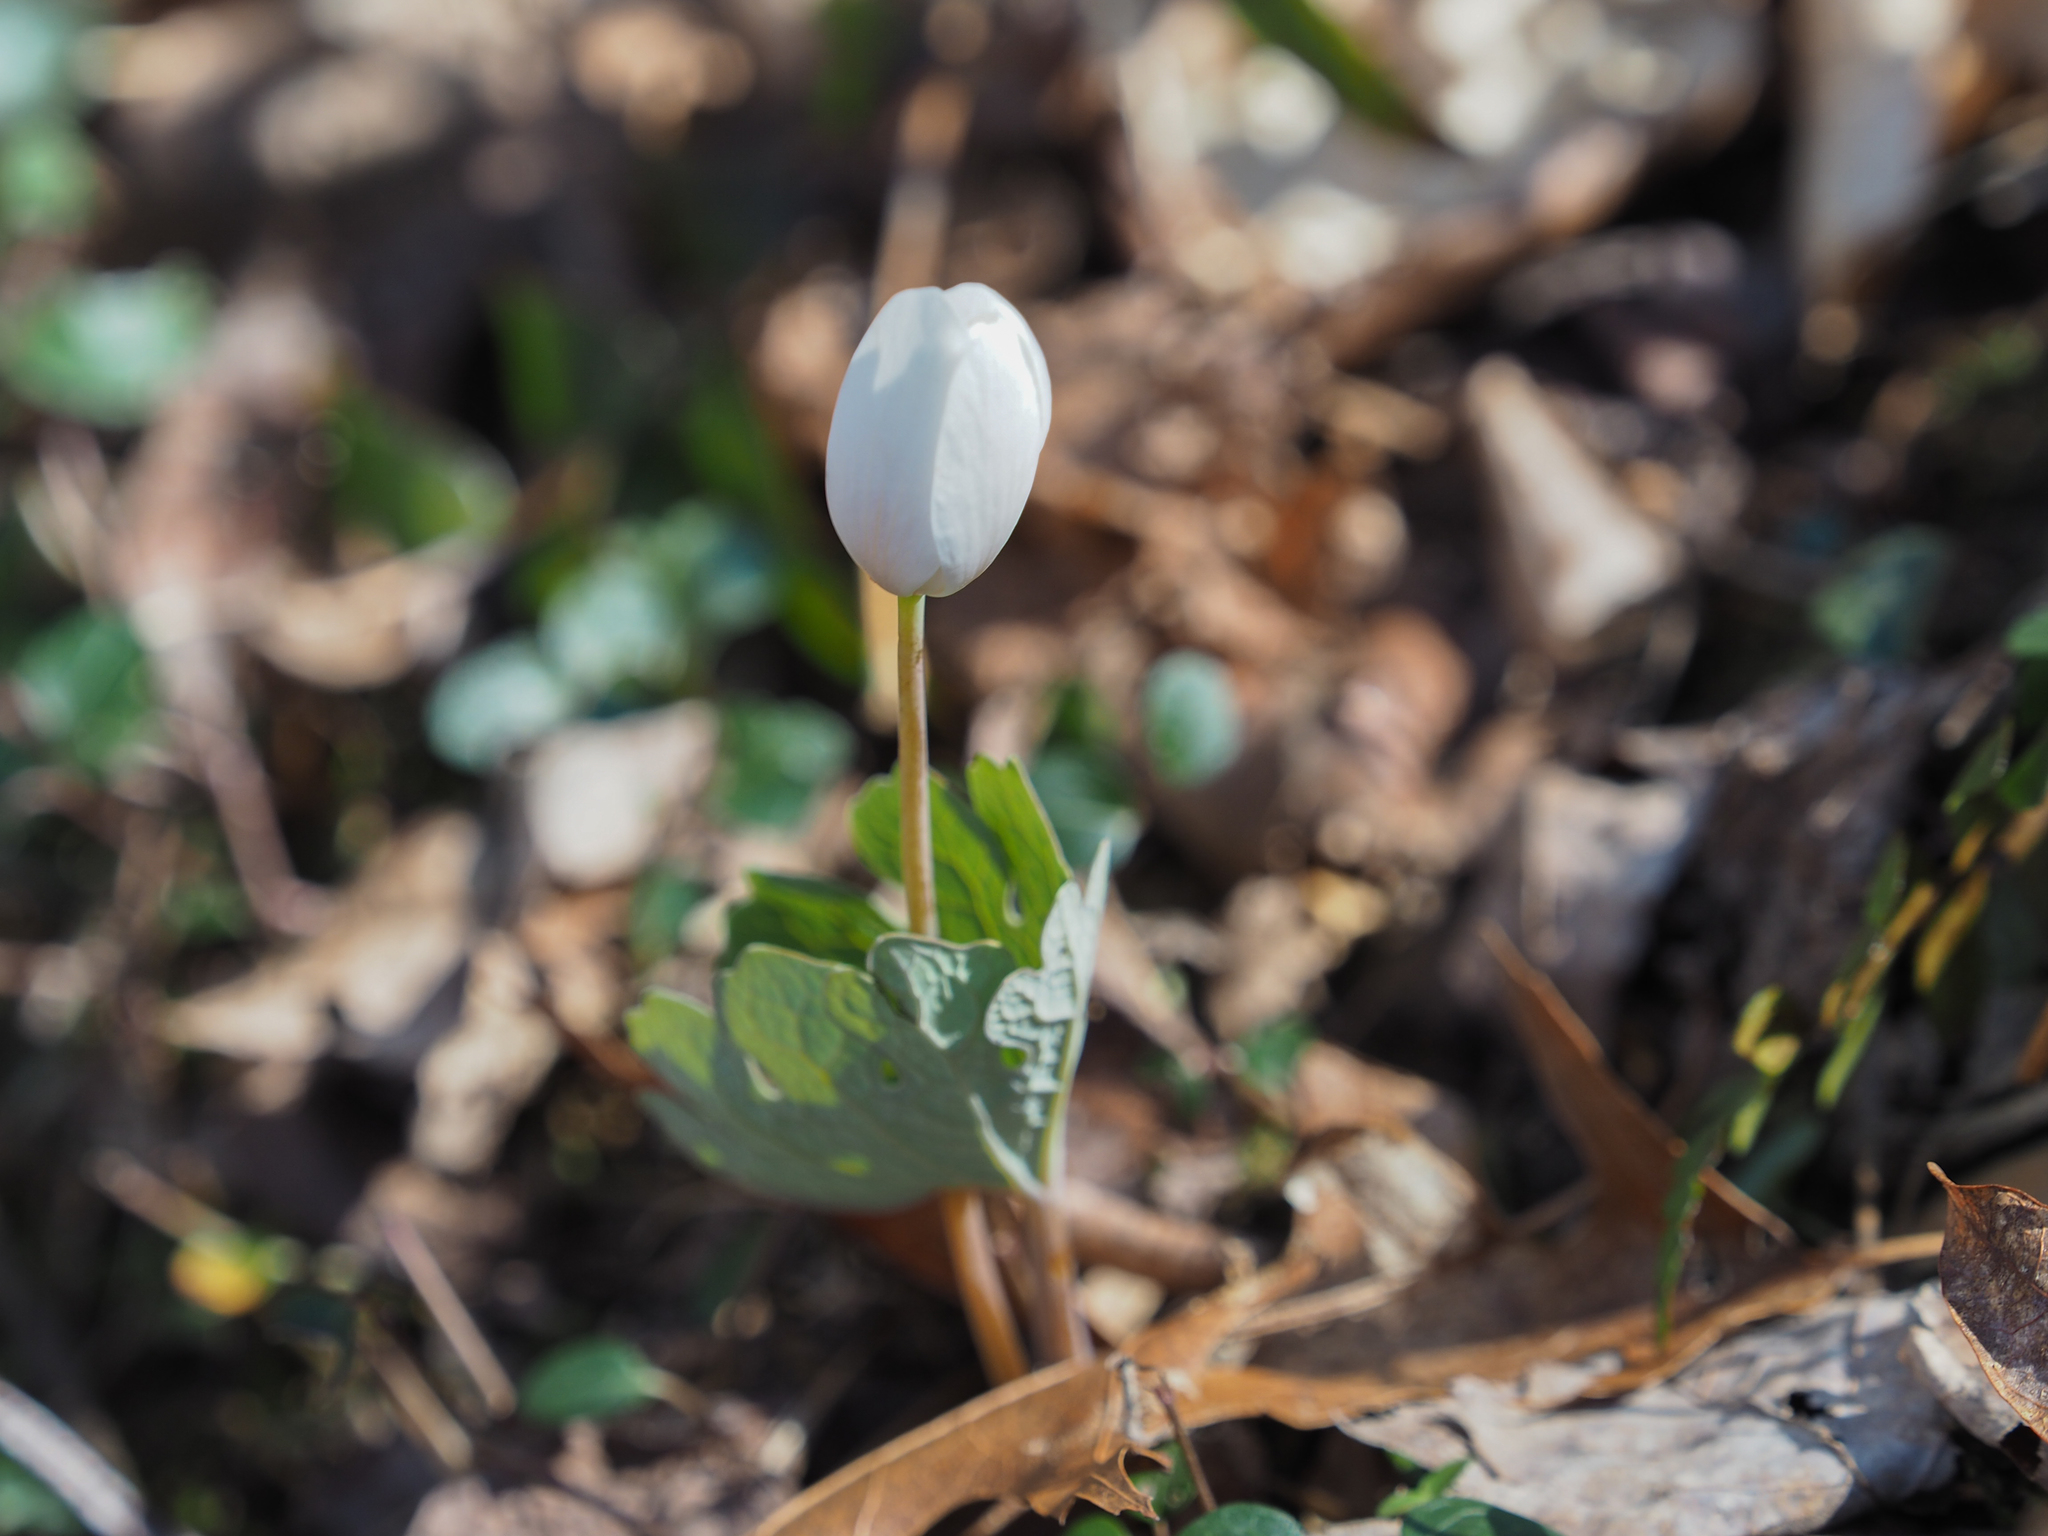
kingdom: Plantae
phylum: Tracheophyta
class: Magnoliopsida
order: Ranunculales
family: Papaveraceae
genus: Sanguinaria
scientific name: Sanguinaria canadensis
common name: Bloodroot
